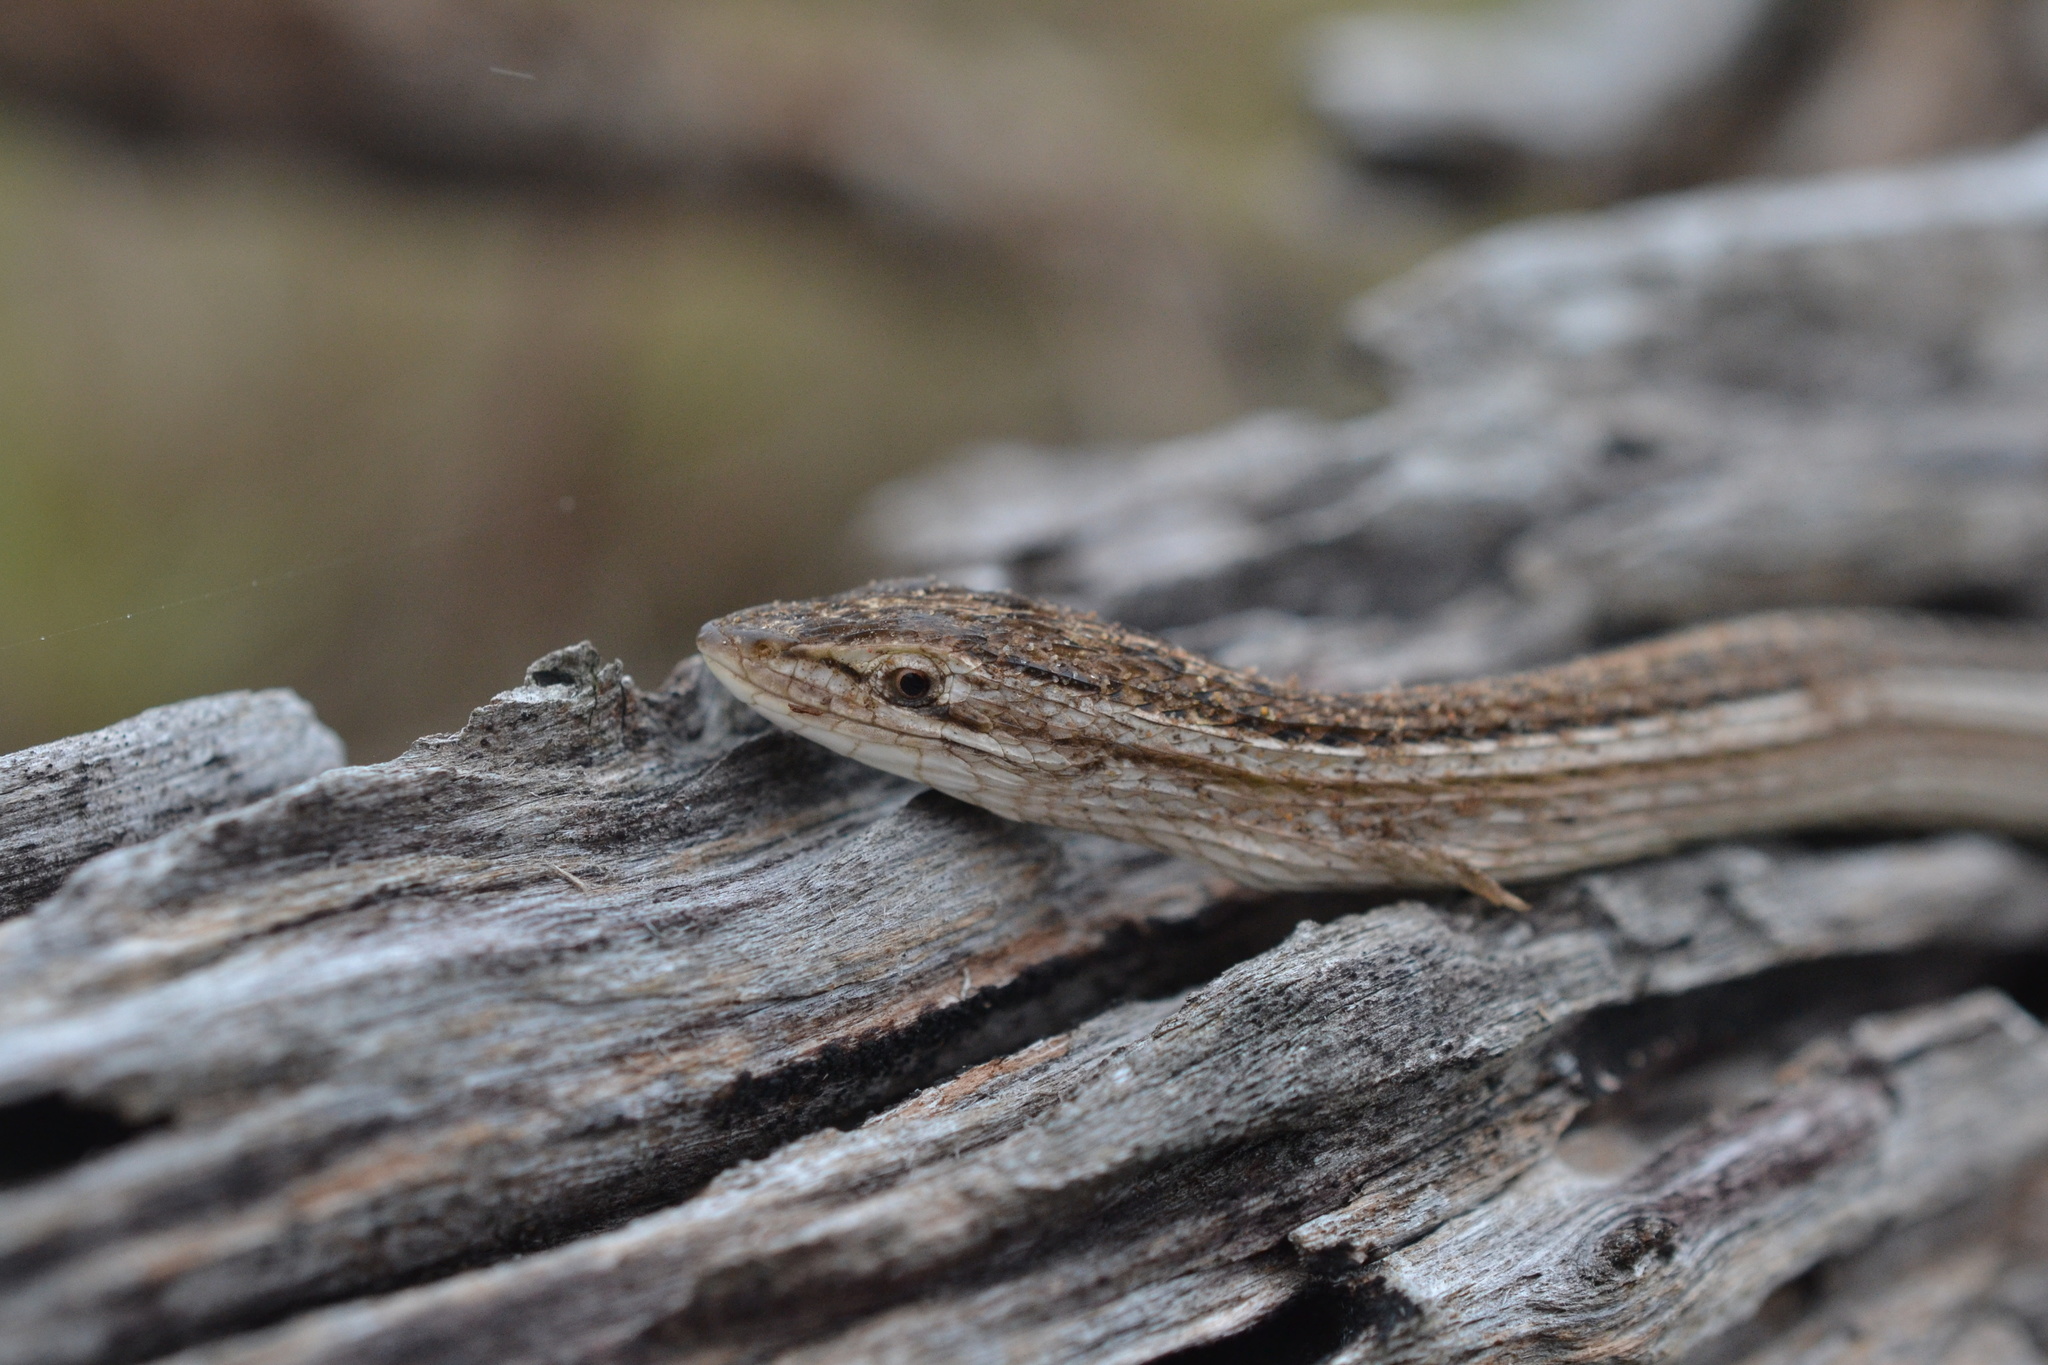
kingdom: Animalia
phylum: Chordata
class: Squamata
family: Cordylidae
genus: Chamaesaura
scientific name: Chamaesaura anguina
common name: Cape snake lizard
